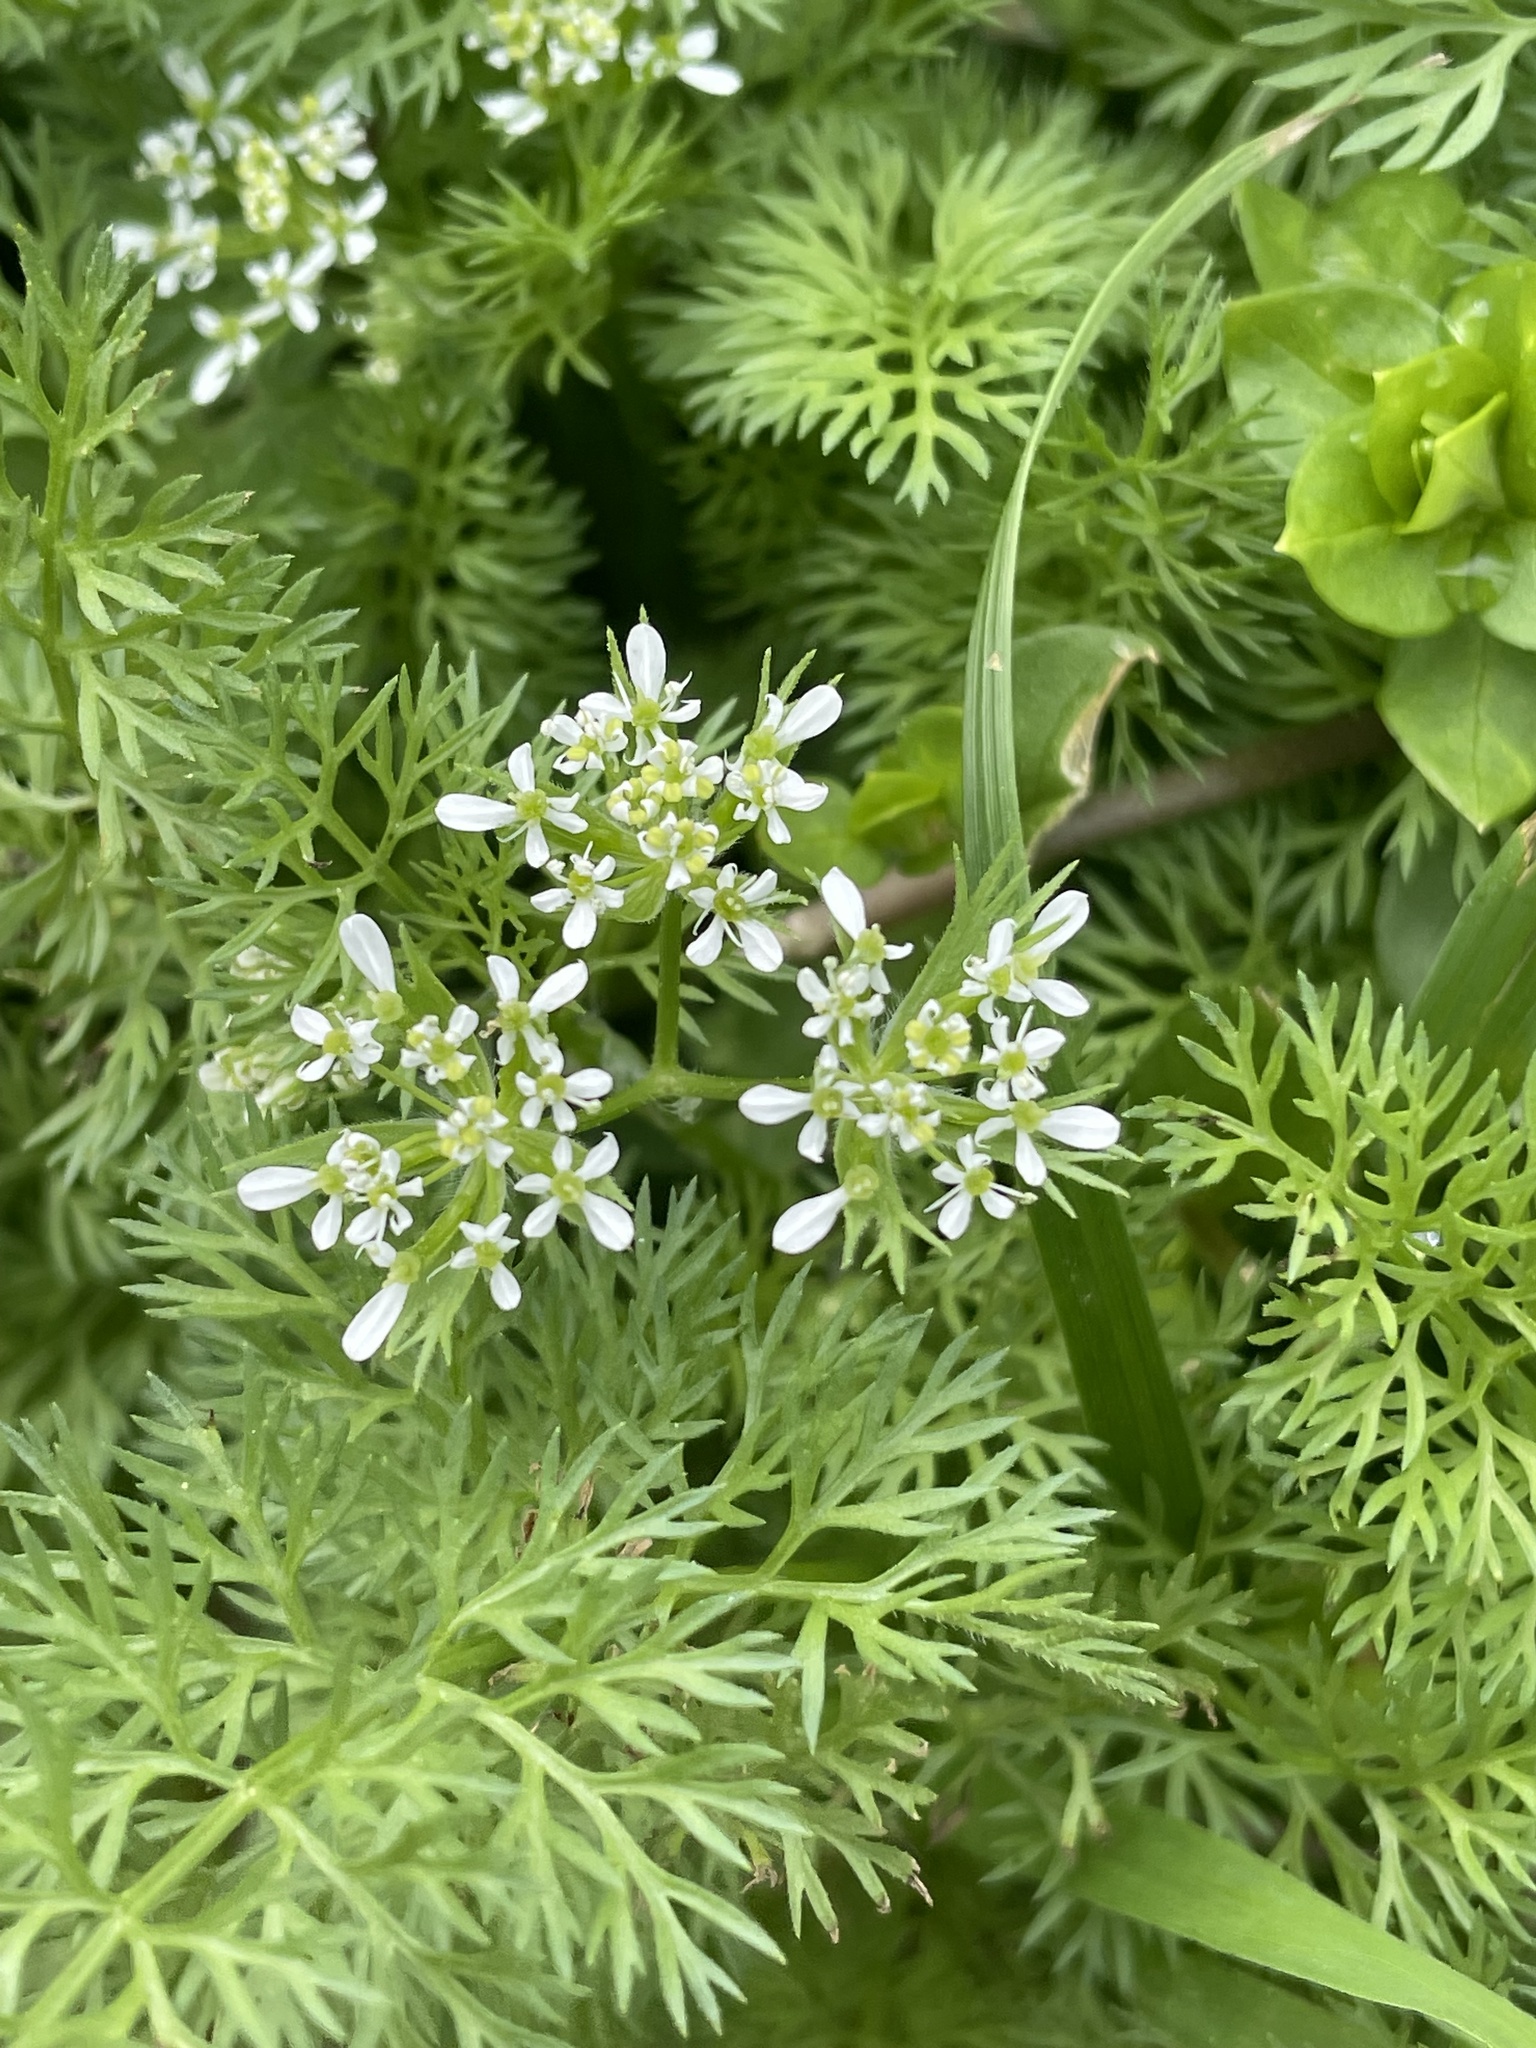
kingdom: Plantae
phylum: Tracheophyta
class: Magnoliopsida
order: Apiales
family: Apiaceae
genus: Scandix
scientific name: Scandix pecten-veneris
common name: Shepherd's-needle
